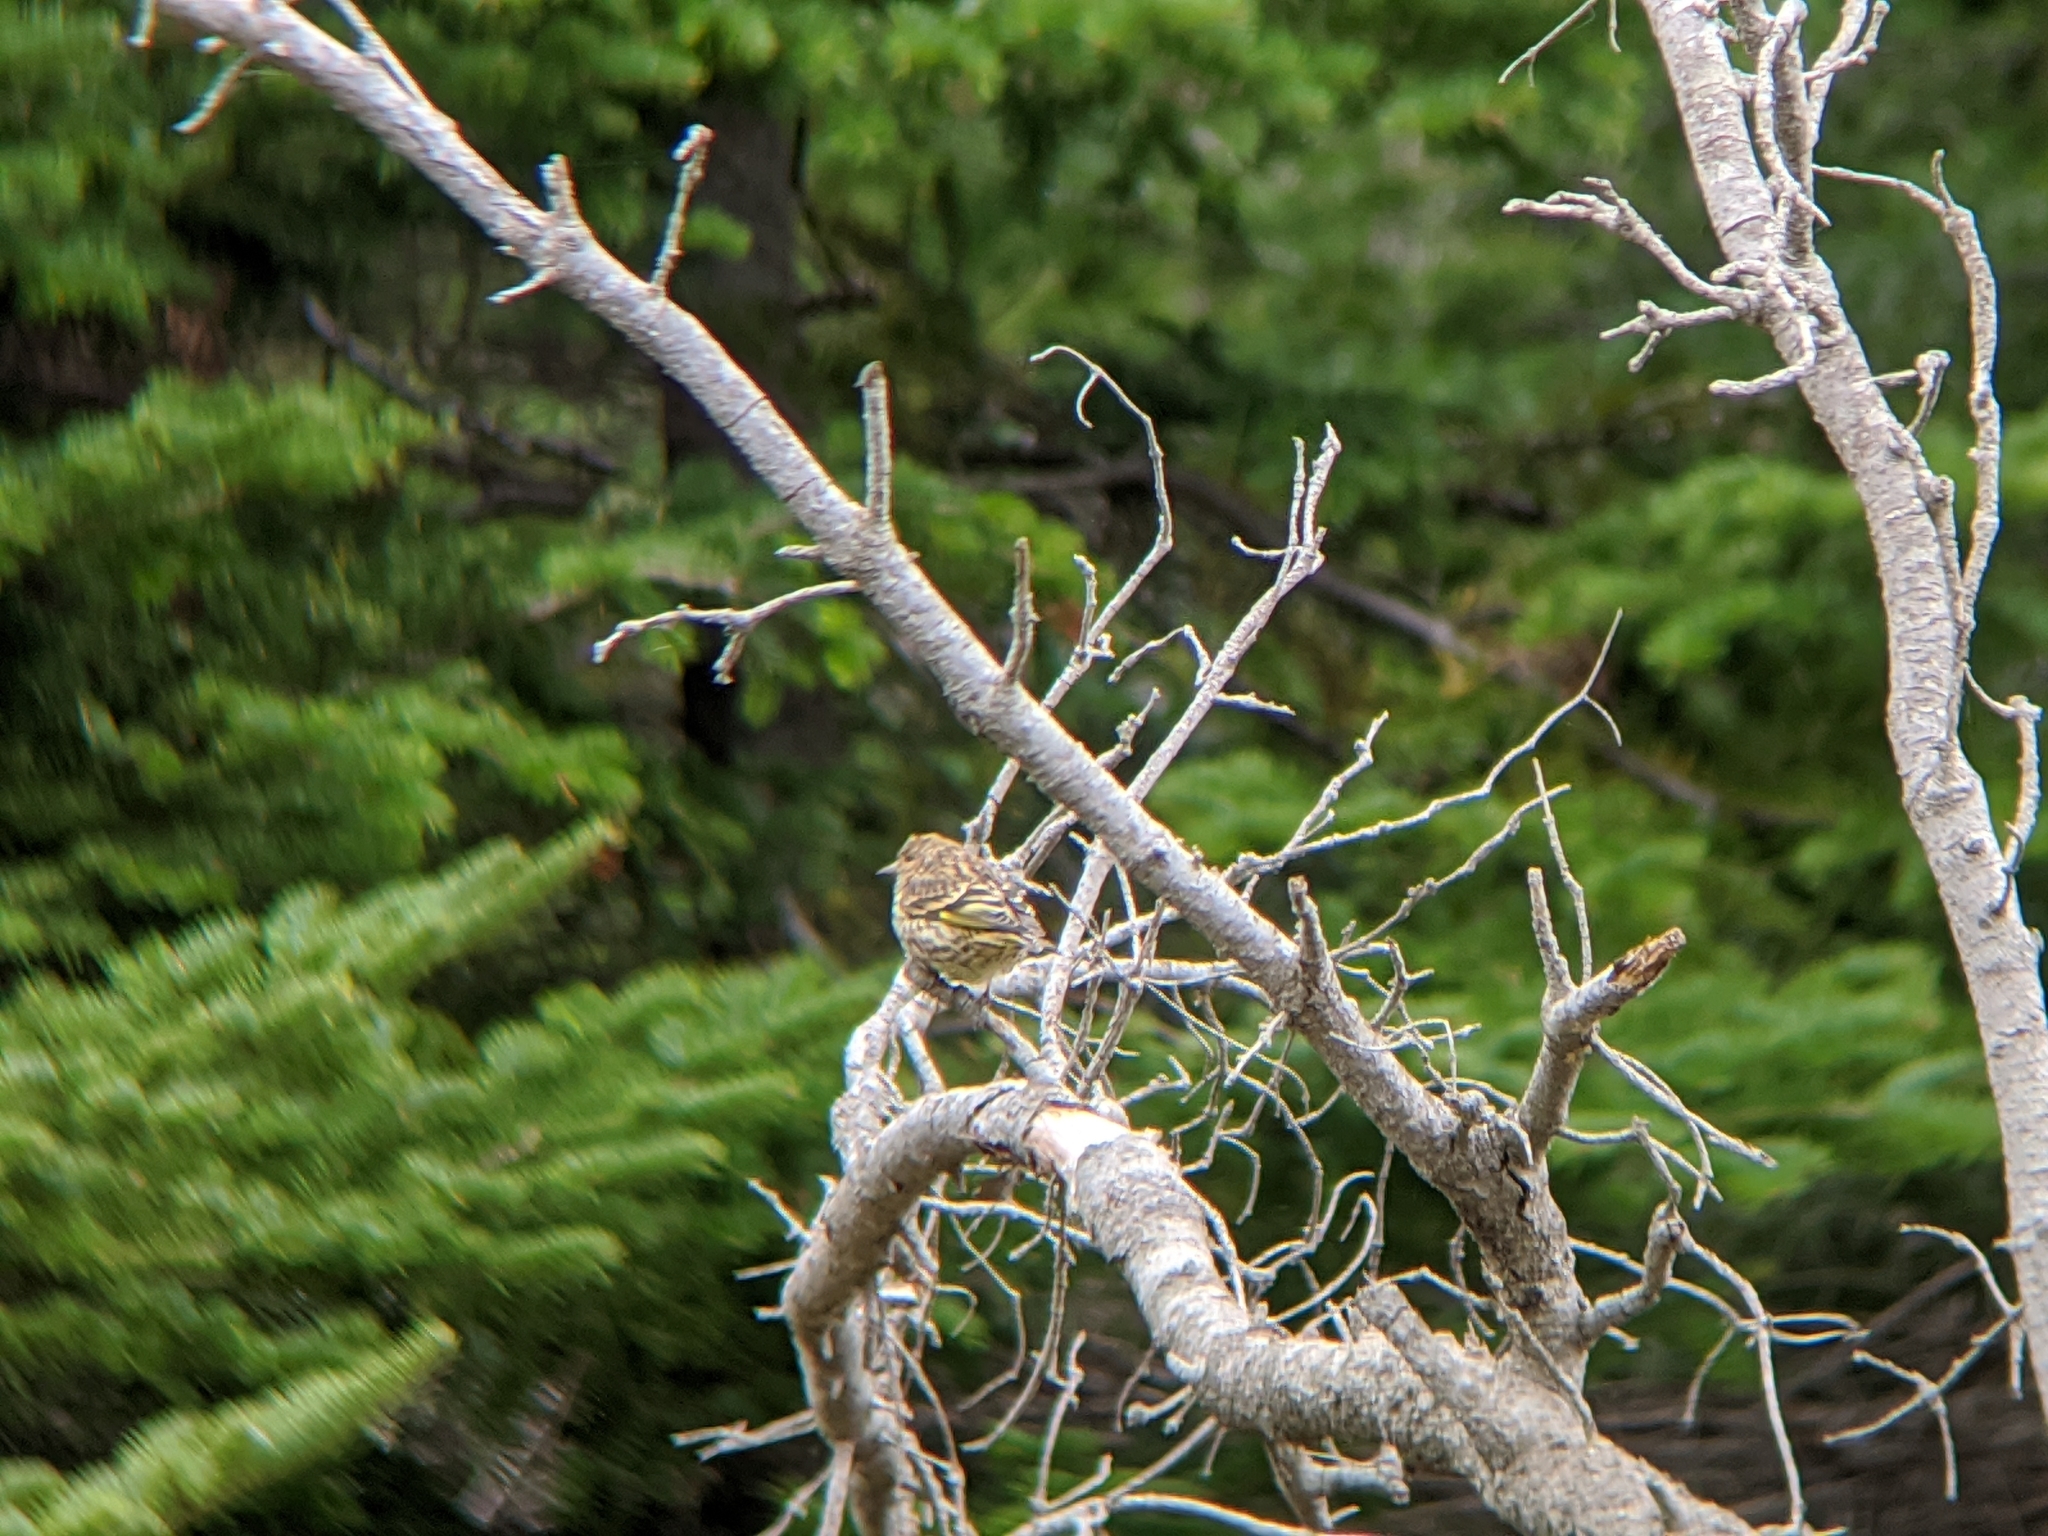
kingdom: Animalia
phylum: Chordata
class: Aves
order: Passeriformes
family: Fringillidae
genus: Spinus
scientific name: Spinus pinus
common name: Pine siskin
